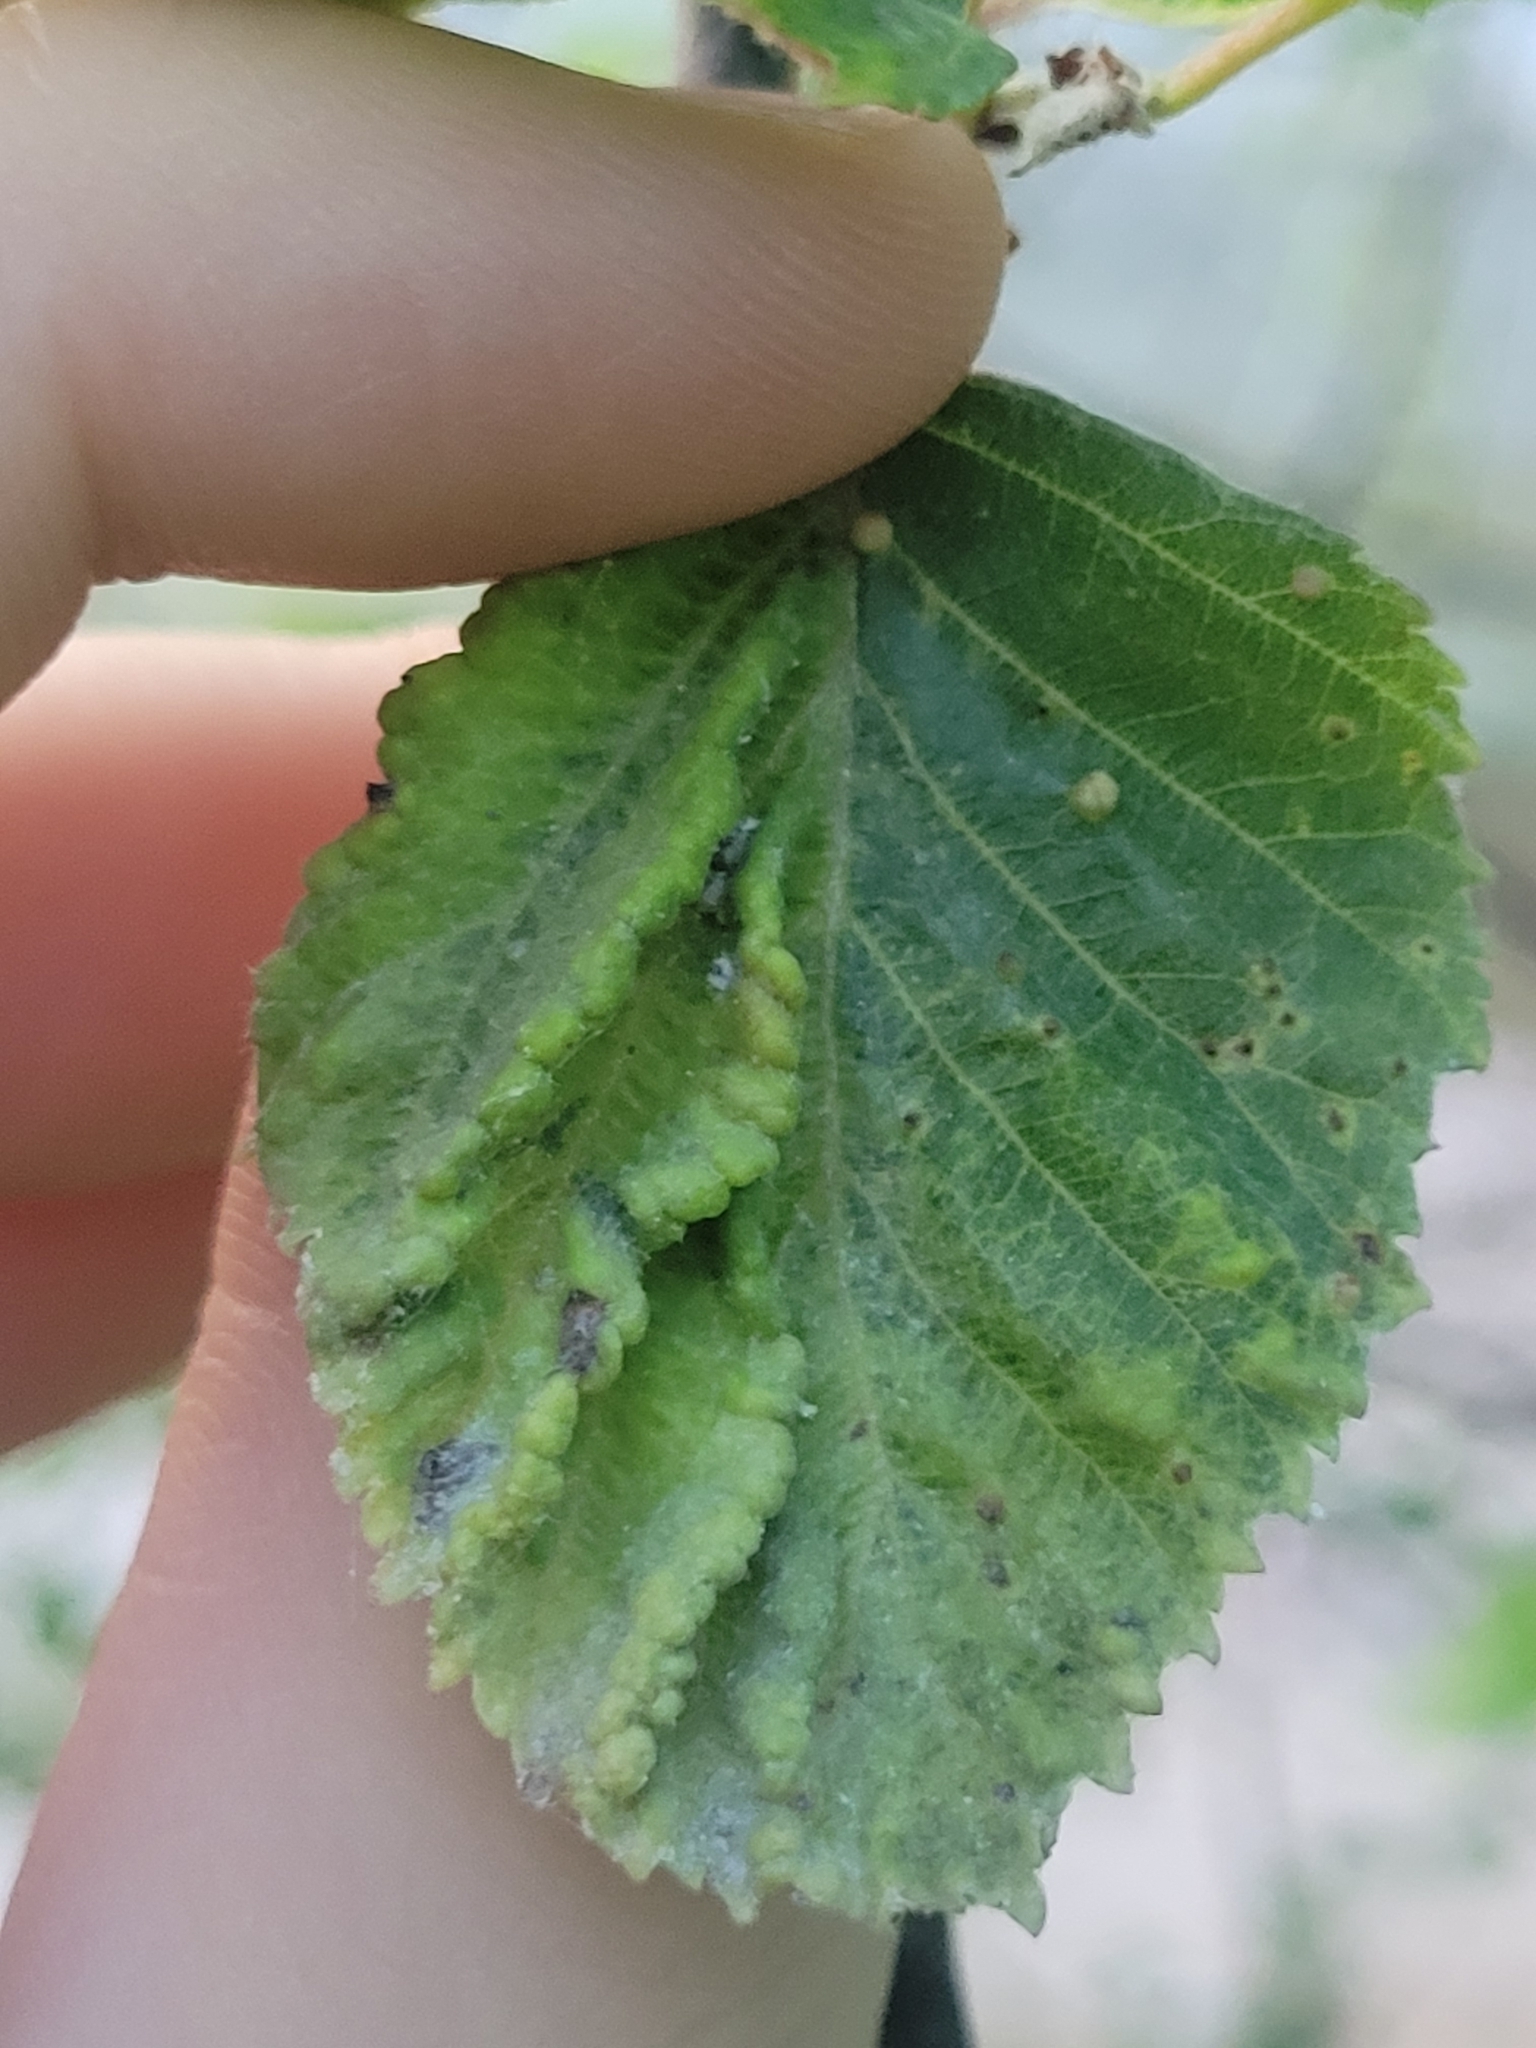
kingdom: Animalia
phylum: Arthropoda
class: Insecta
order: Hemiptera
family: Aphididae
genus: Hamamelistes
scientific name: Hamamelistes spinosus
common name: Witch hazel gall aphid
